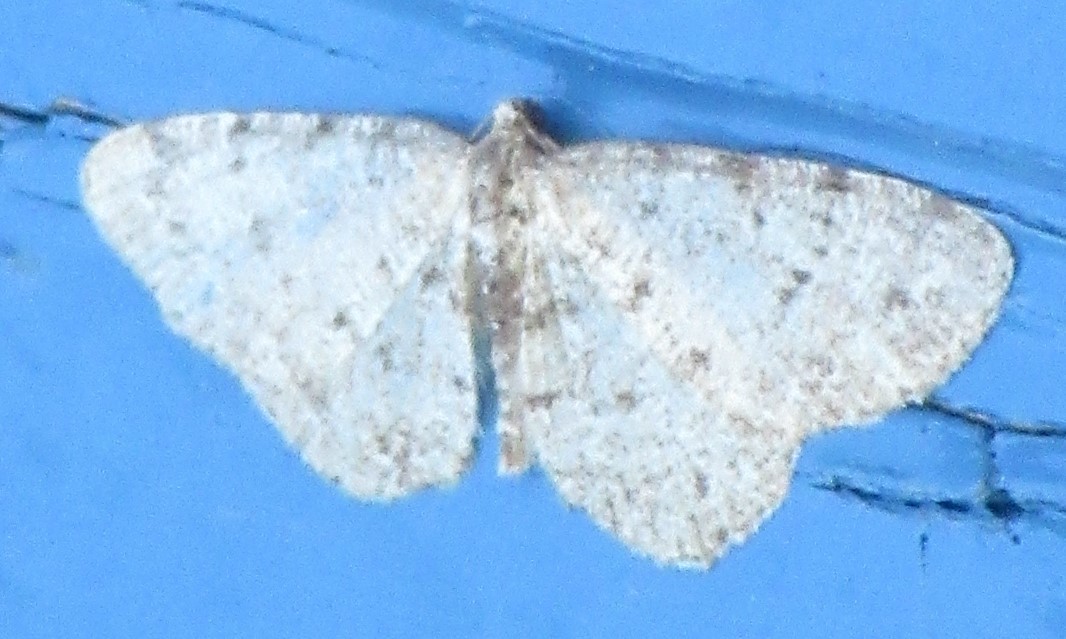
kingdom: Animalia
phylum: Arthropoda
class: Insecta
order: Lepidoptera
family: Geometridae
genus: Aethalura
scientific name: Aethalura intertexta
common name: Four-barred gray
